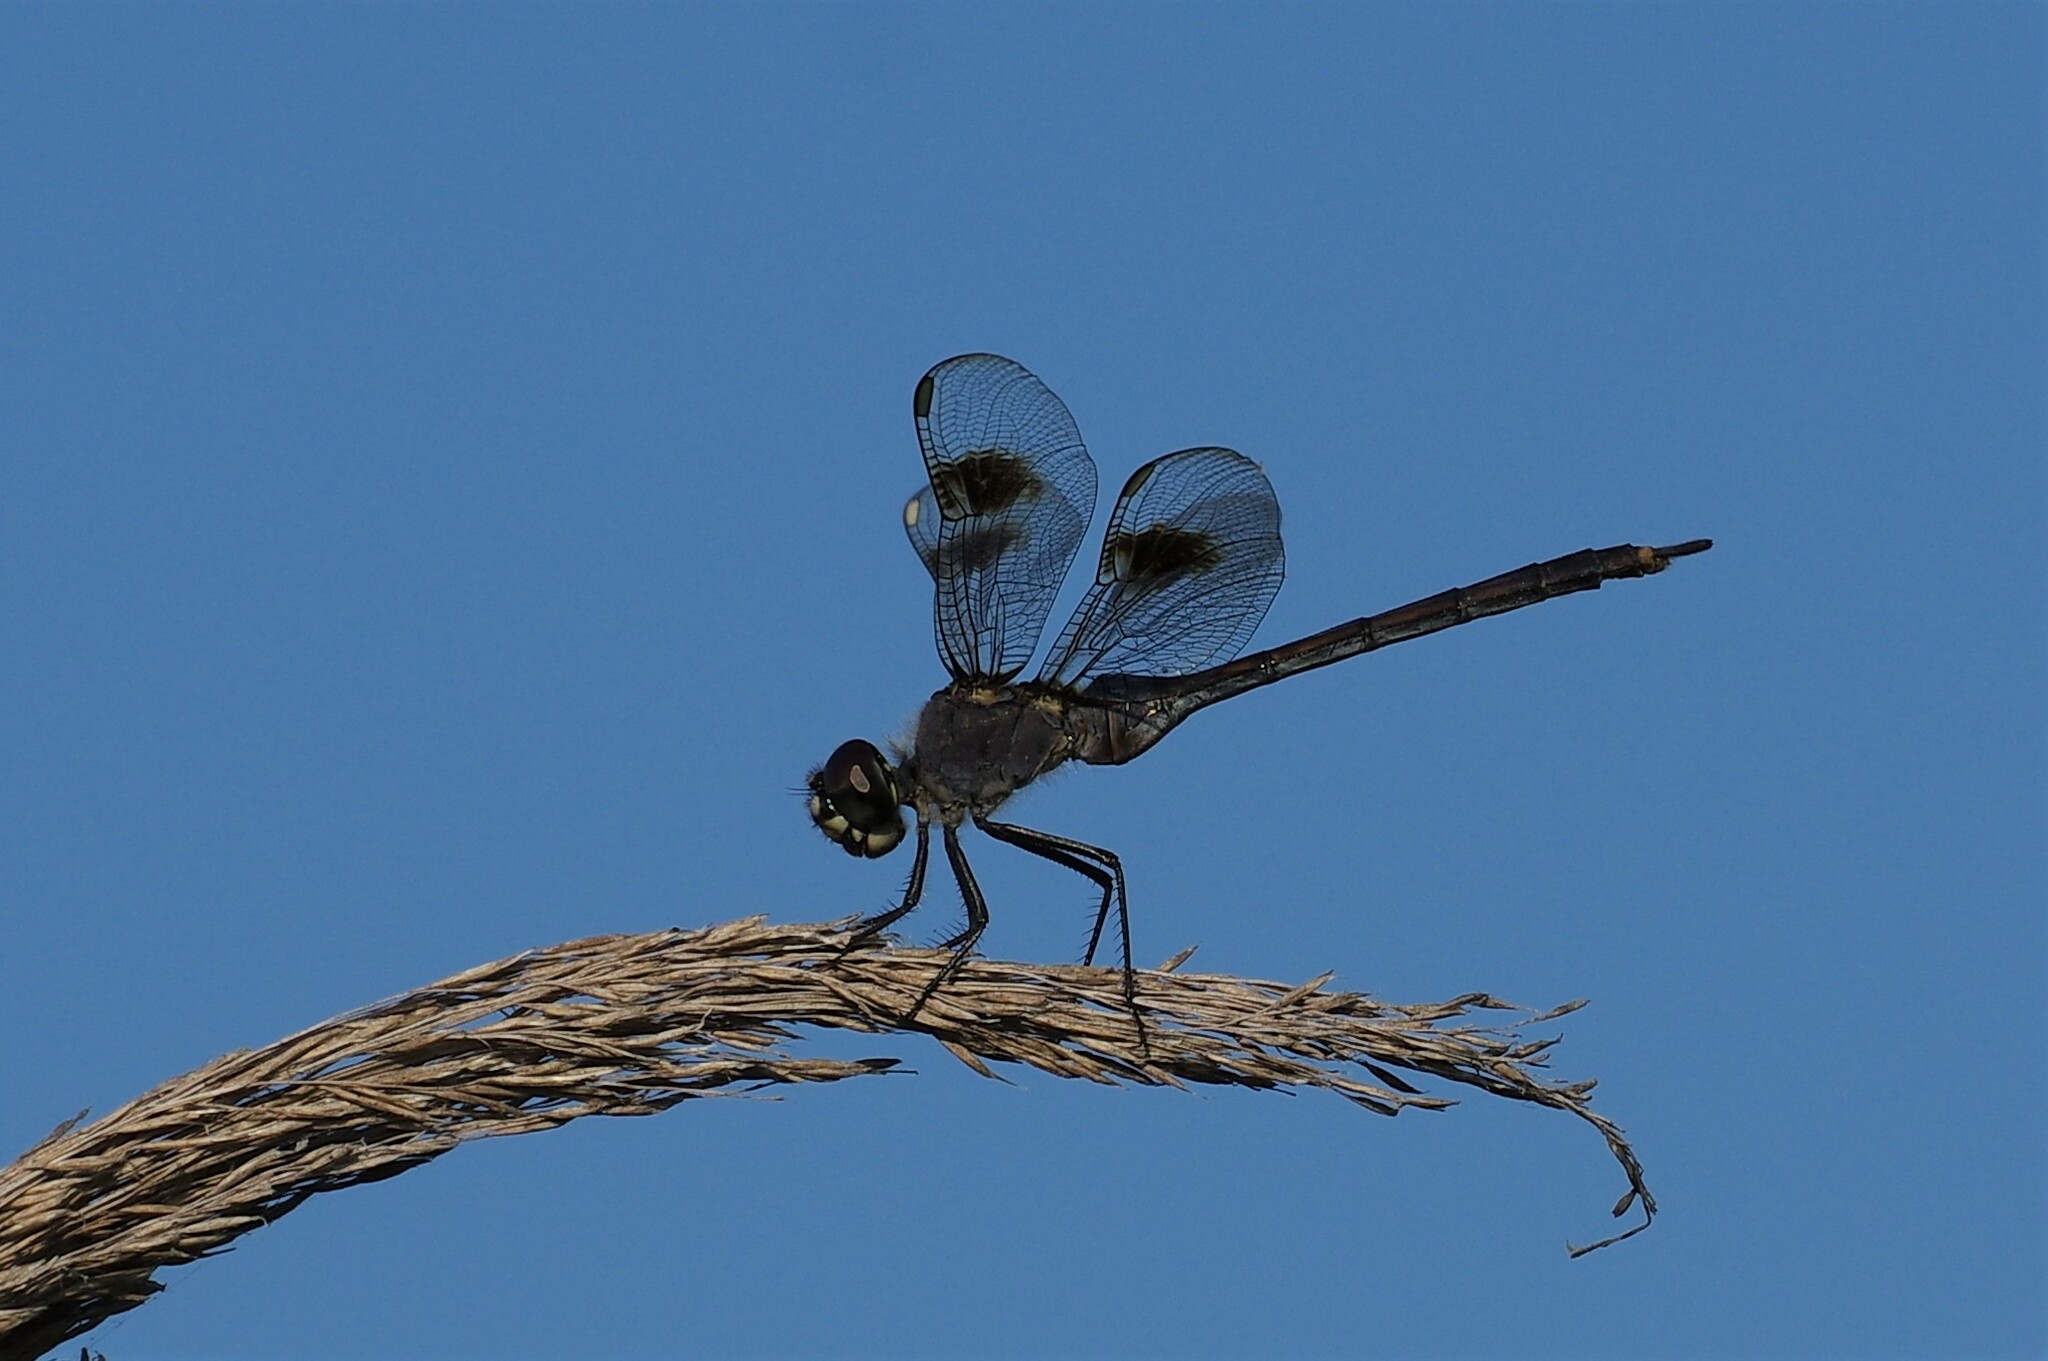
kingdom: Animalia
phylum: Arthropoda
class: Insecta
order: Odonata
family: Libellulidae
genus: Brachymesia
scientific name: Brachymesia gravida
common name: Four-spotted pennant
